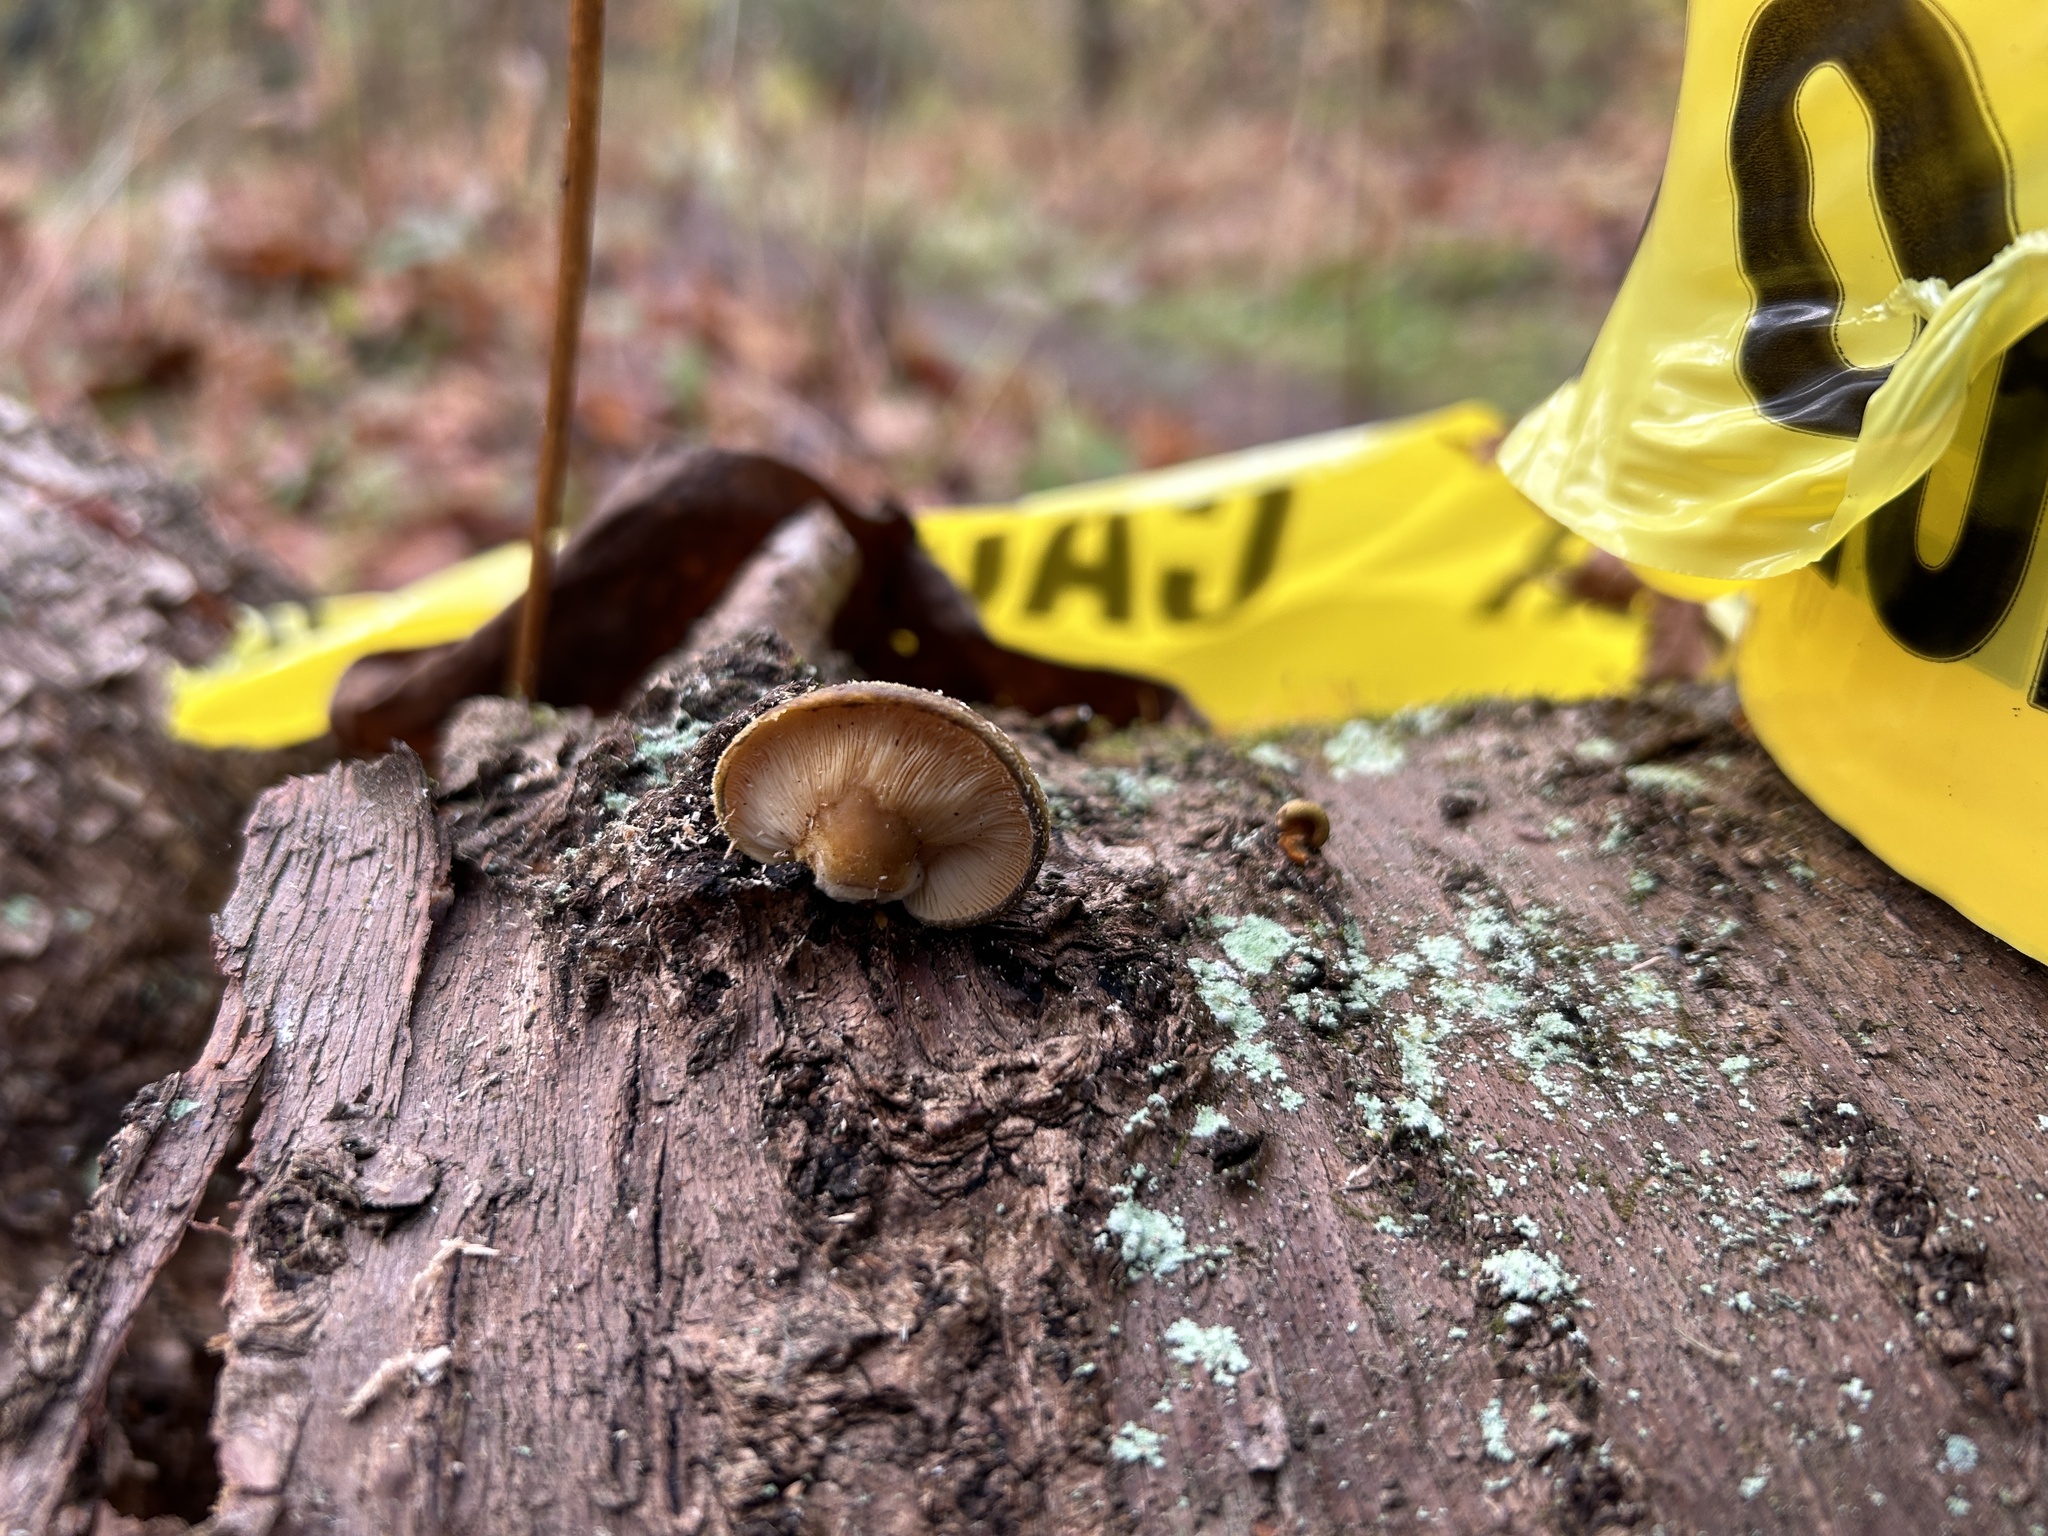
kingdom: Fungi
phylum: Basidiomycota
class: Agaricomycetes
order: Agaricales
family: Sarcomyxaceae
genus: Sarcomyxa
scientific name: Sarcomyxa serotina
